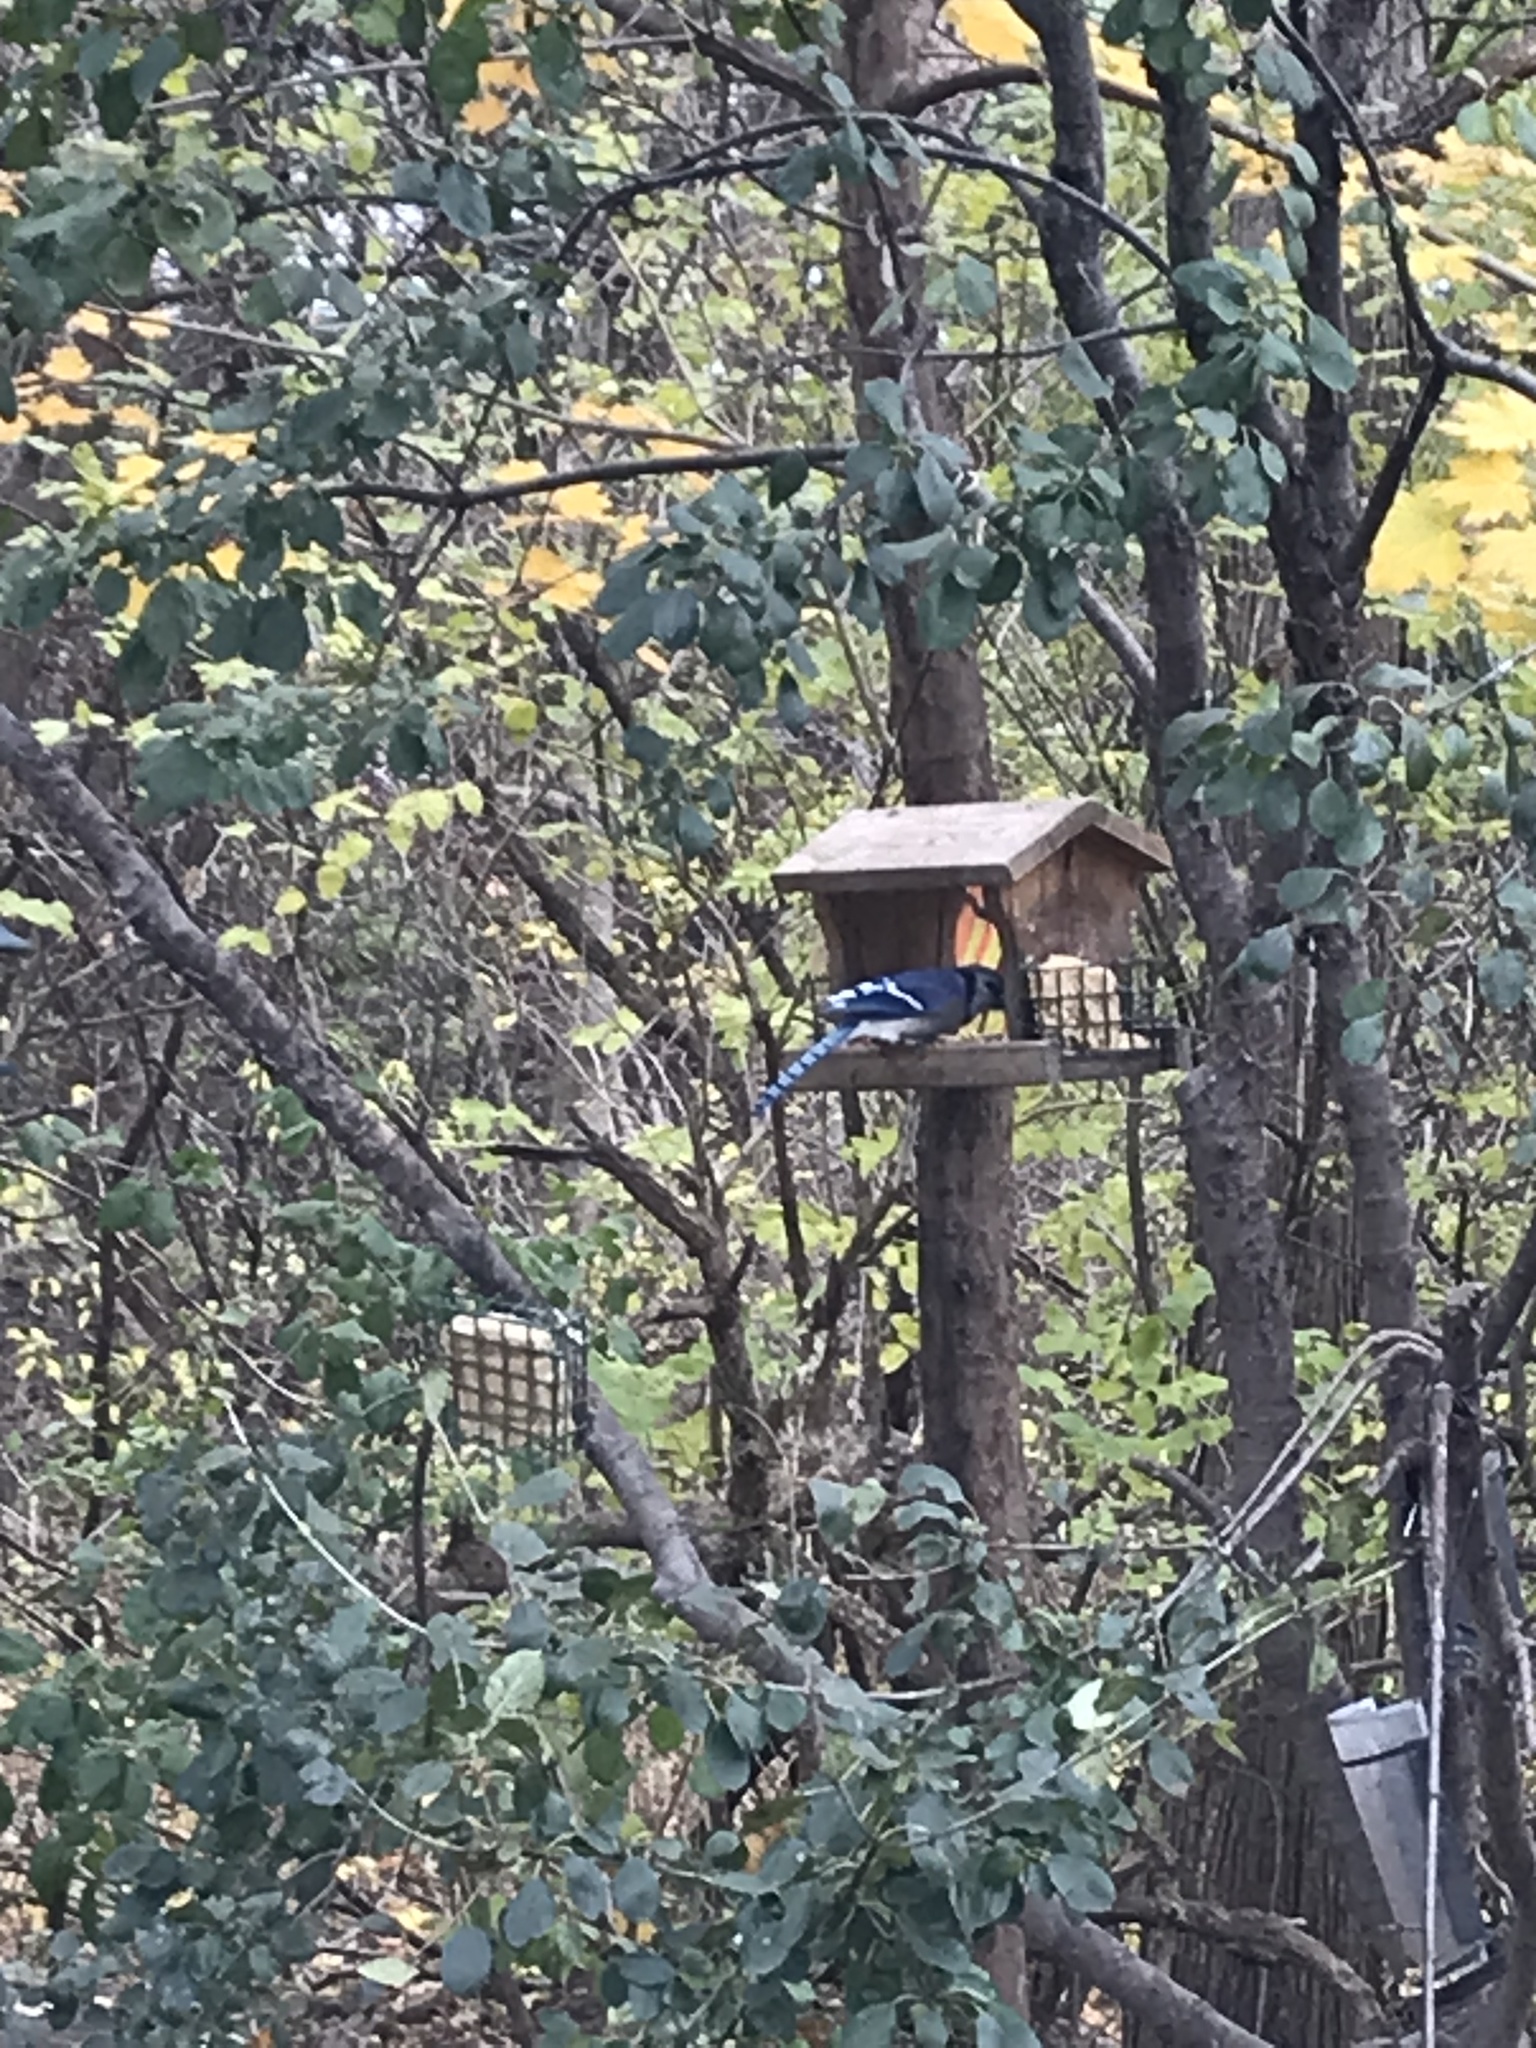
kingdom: Animalia
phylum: Chordata
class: Aves
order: Passeriformes
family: Corvidae
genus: Cyanocitta
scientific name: Cyanocitta cristata
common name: Blue jay
